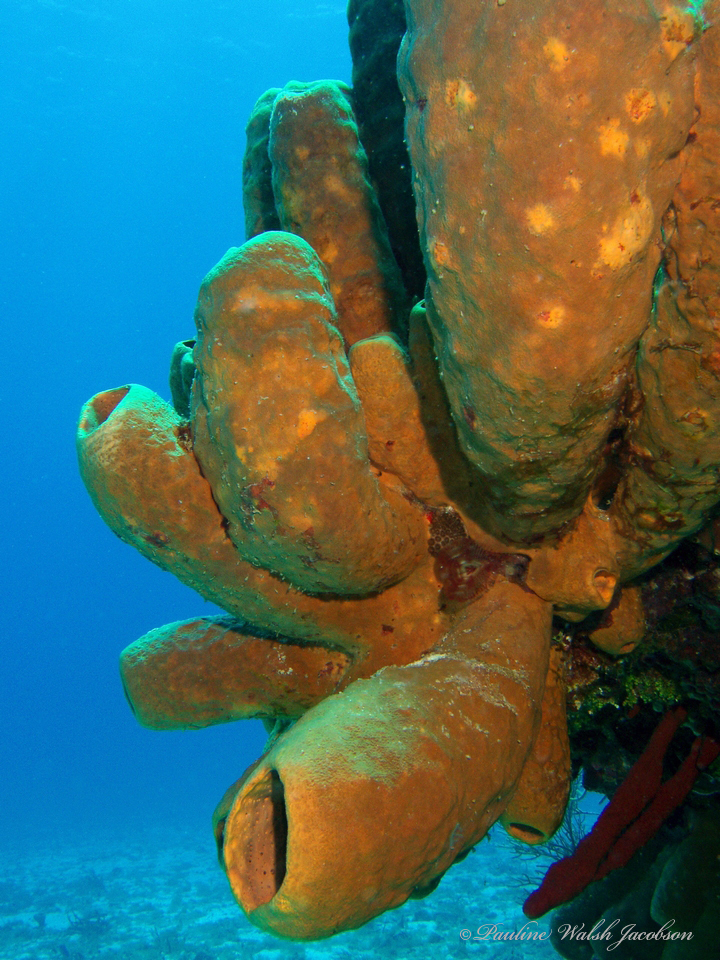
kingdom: Animalia
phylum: Porifera
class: Demospongiae
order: Agelasida
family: Agelasidae
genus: Agelas
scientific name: Agelas tubulata
